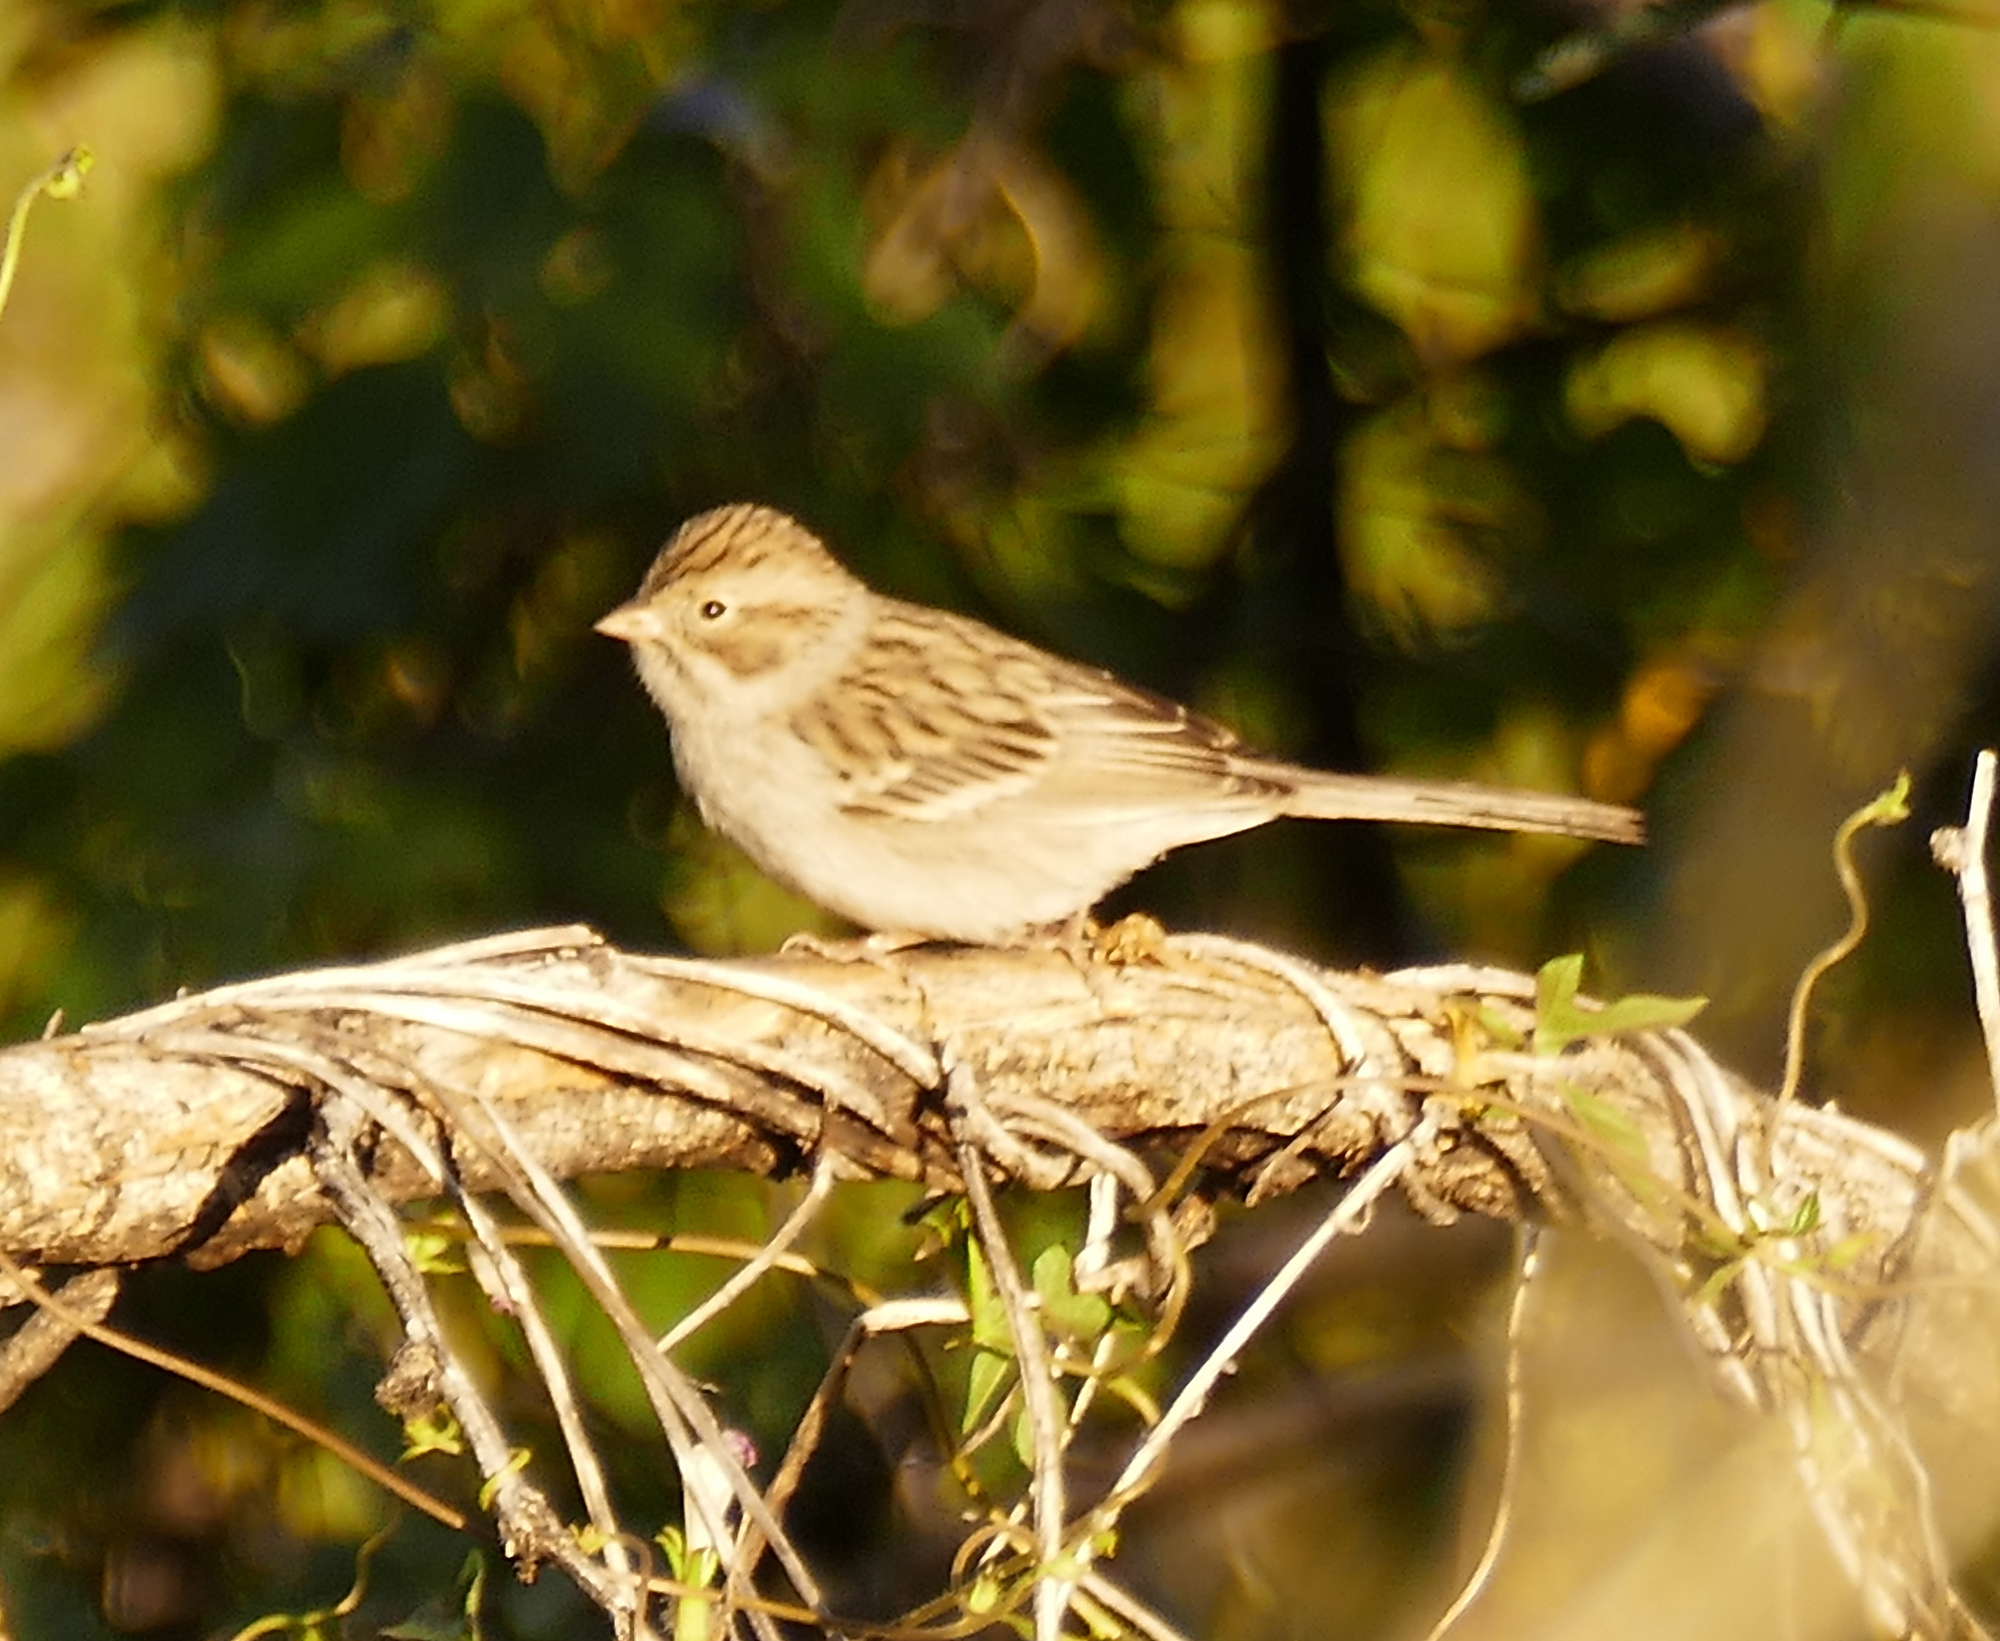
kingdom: Animalia
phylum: Chordata
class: Aves
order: Passeriformes
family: Passerellidae
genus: Spizella
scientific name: Spizella breweri
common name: Brewer's sparrow
